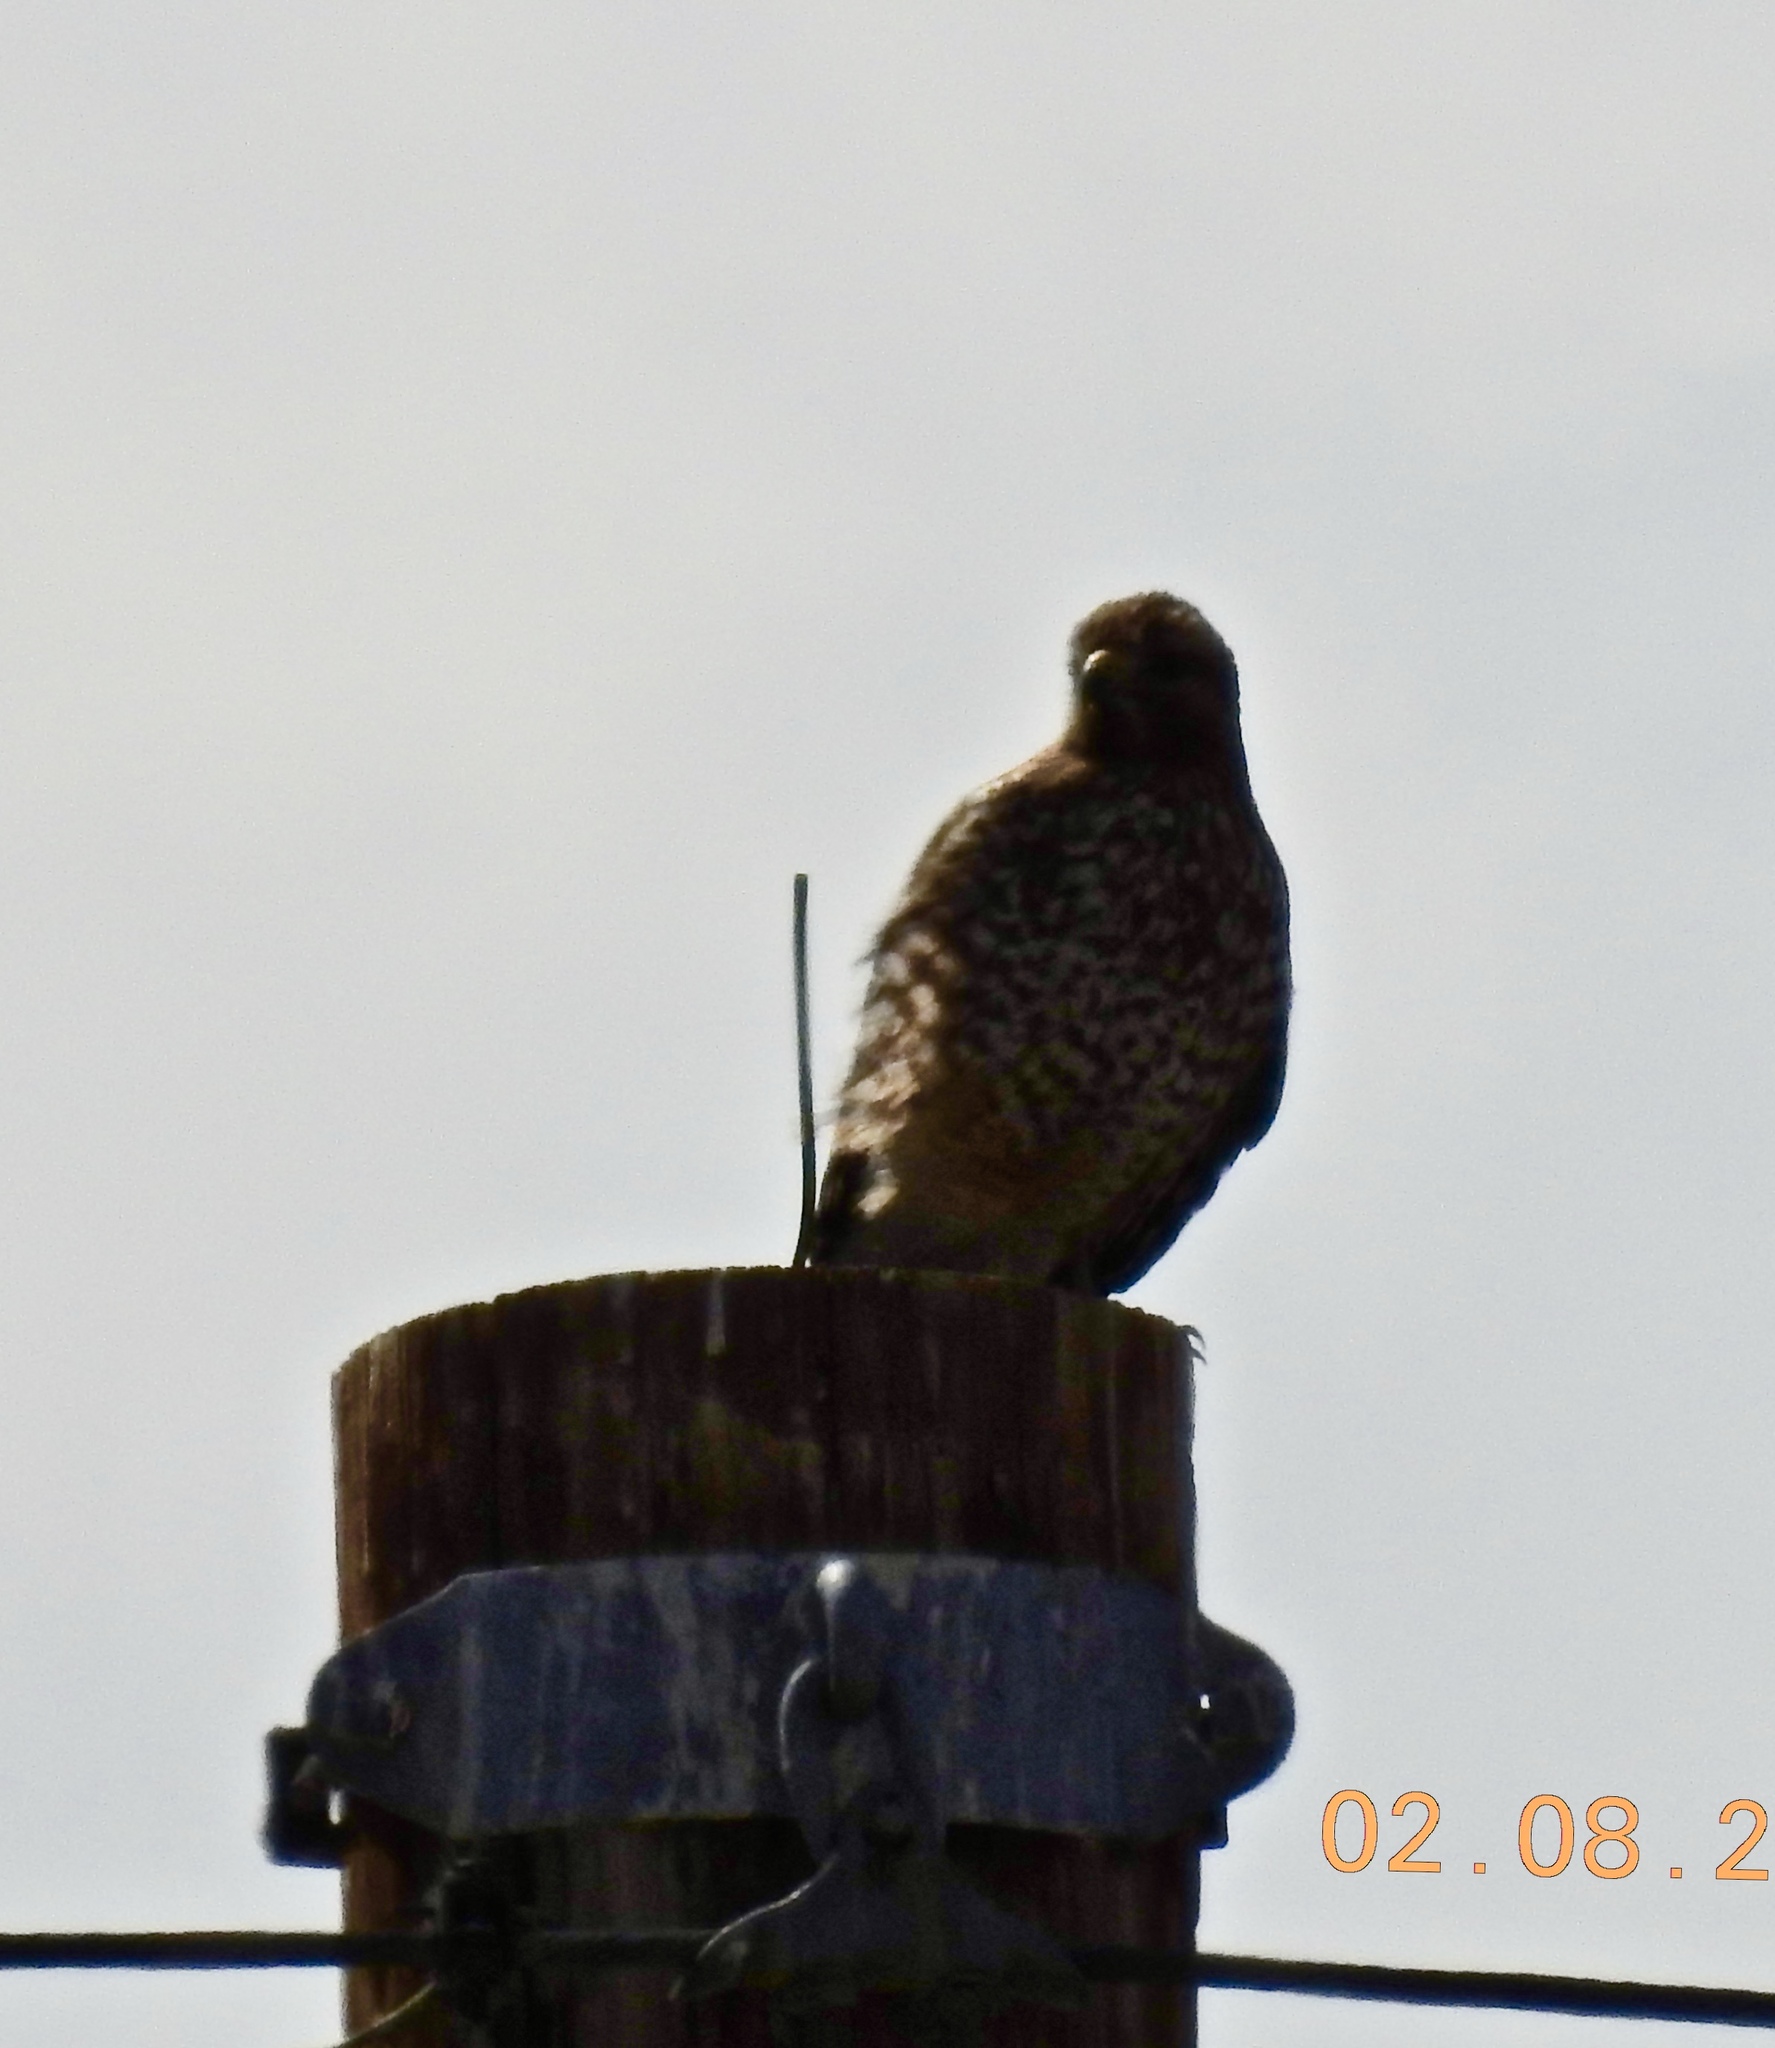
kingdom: Animalia
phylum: Chordata
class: Aves
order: Accipitriformes
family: Accipitridae
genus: Buteo
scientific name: Buteo lineatus
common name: Red-shouldered hawk
